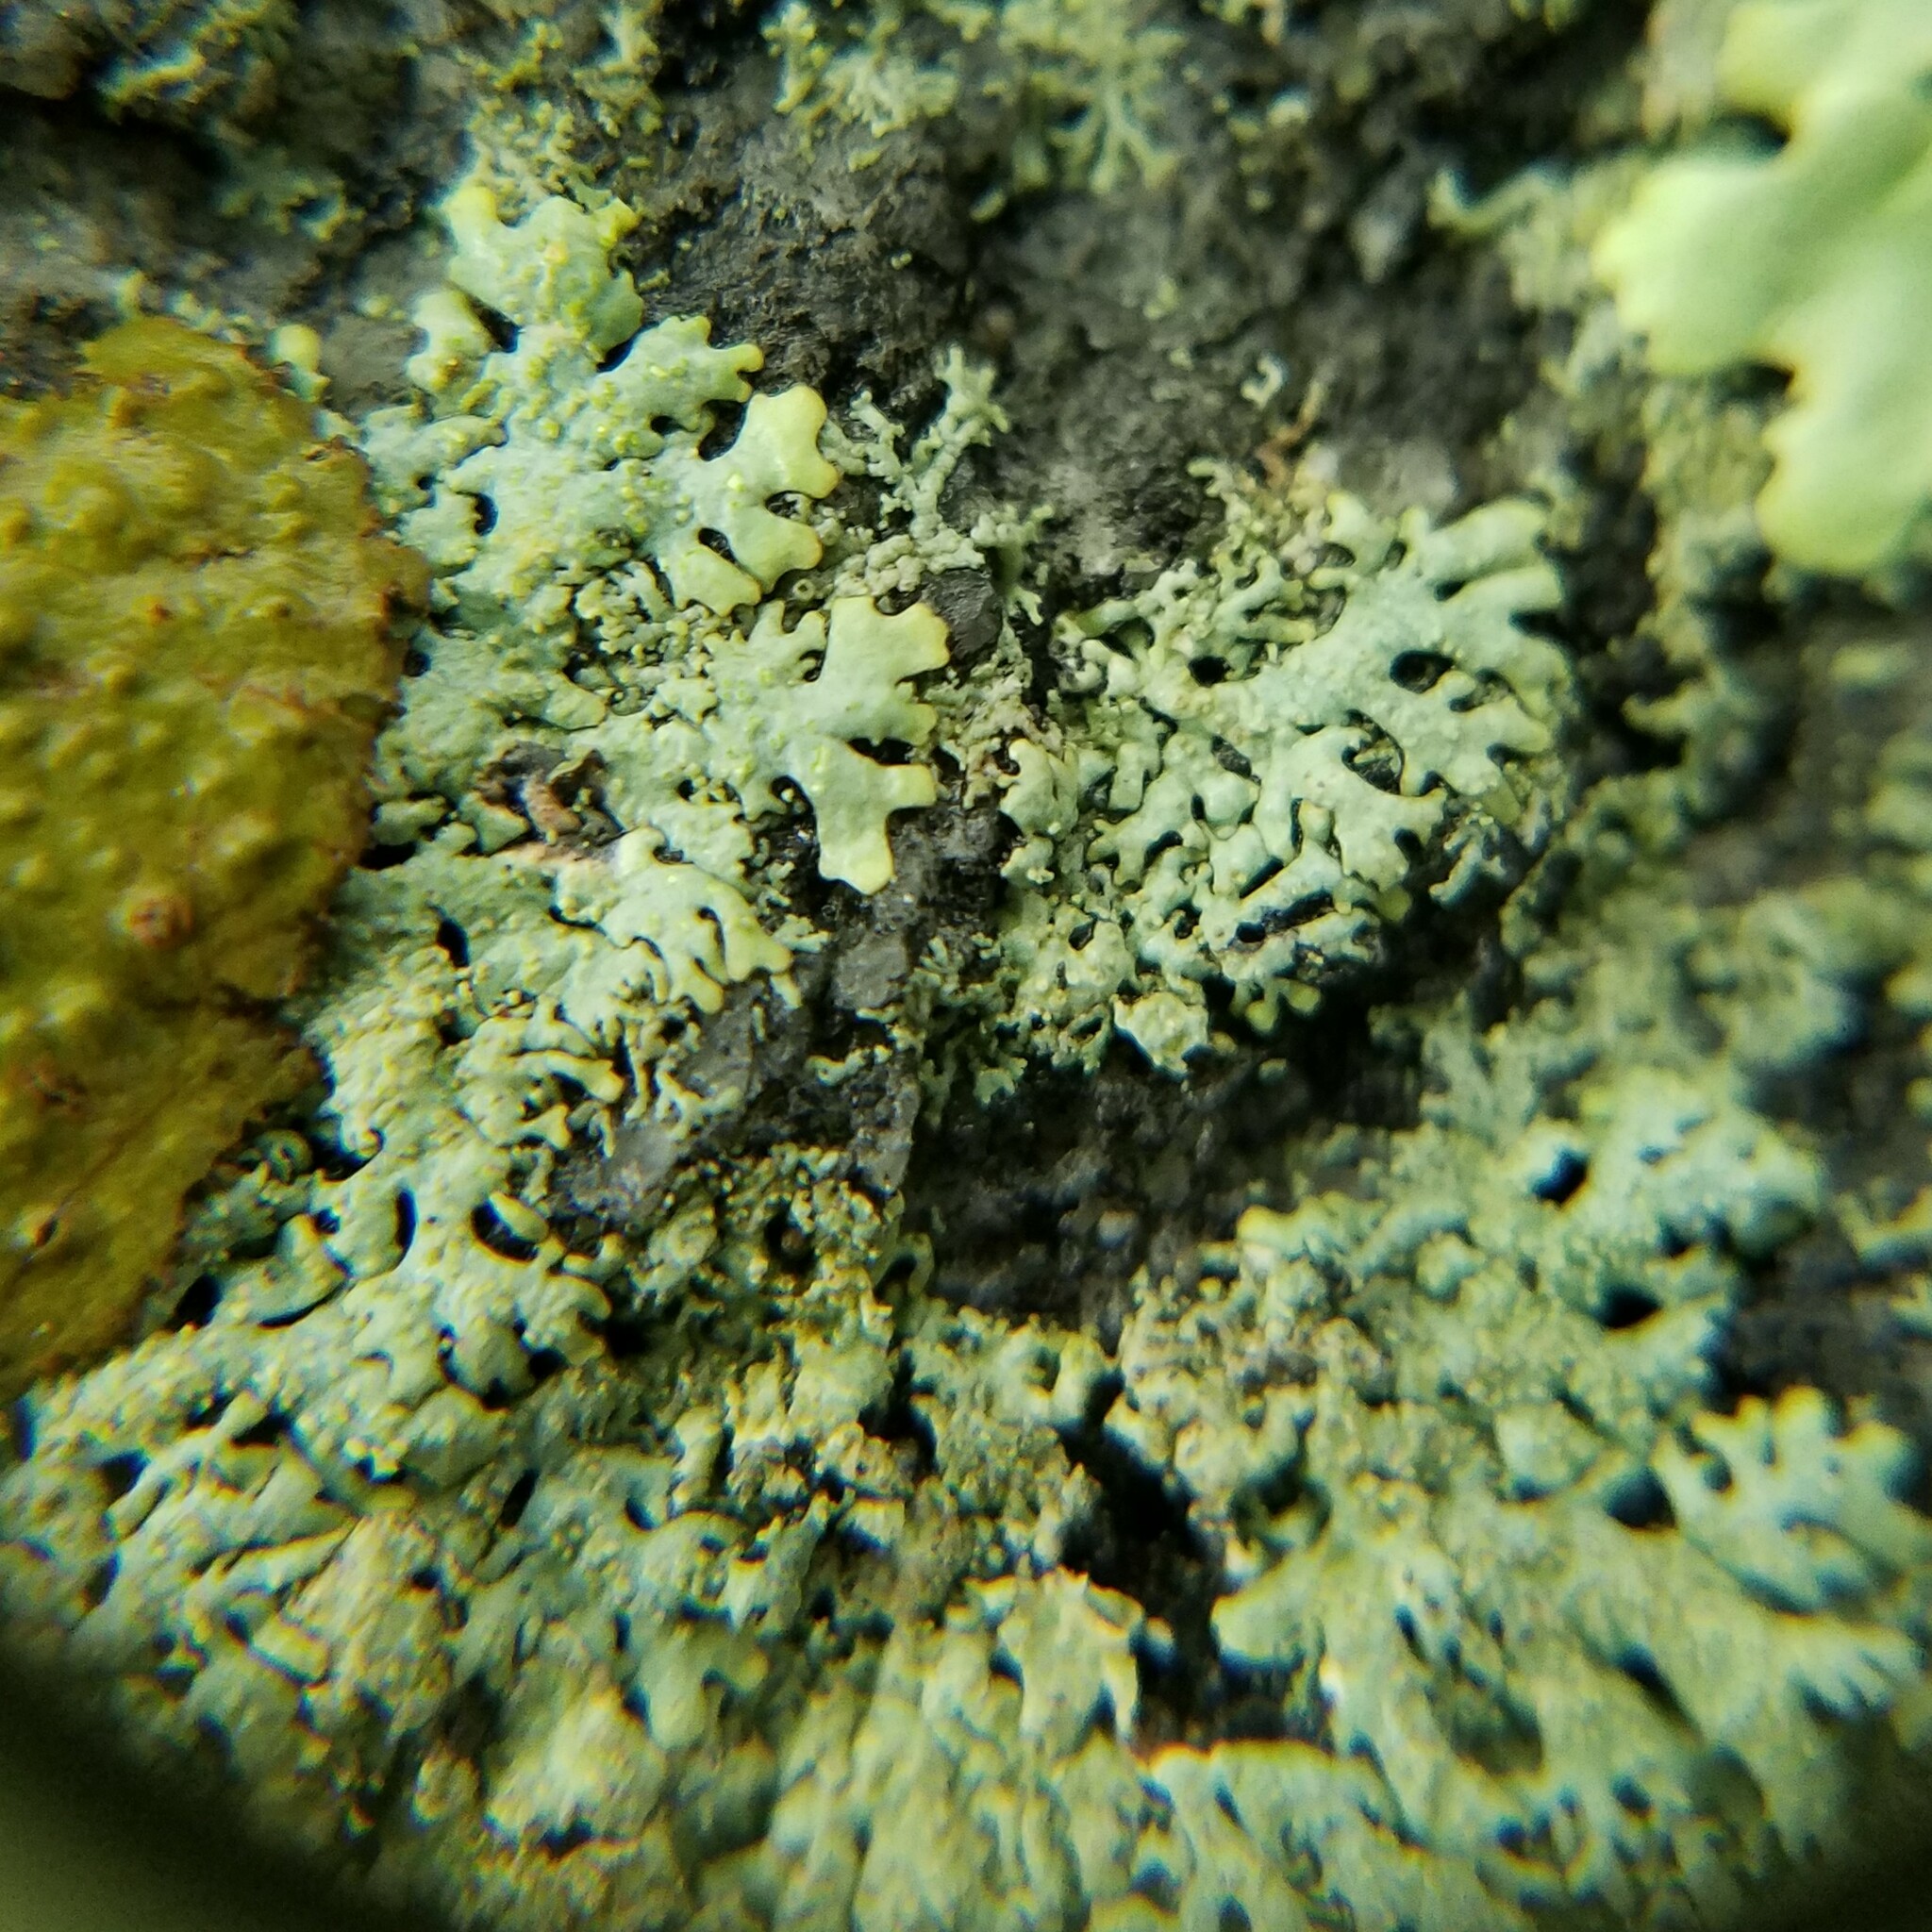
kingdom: Fungi
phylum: Ascomycota
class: Lecanoromycetes
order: Lecanorales
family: Parmeliaceae
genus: Myelochroa
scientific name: Myelochroa obsessa
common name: Rock axil-bristle lichen
